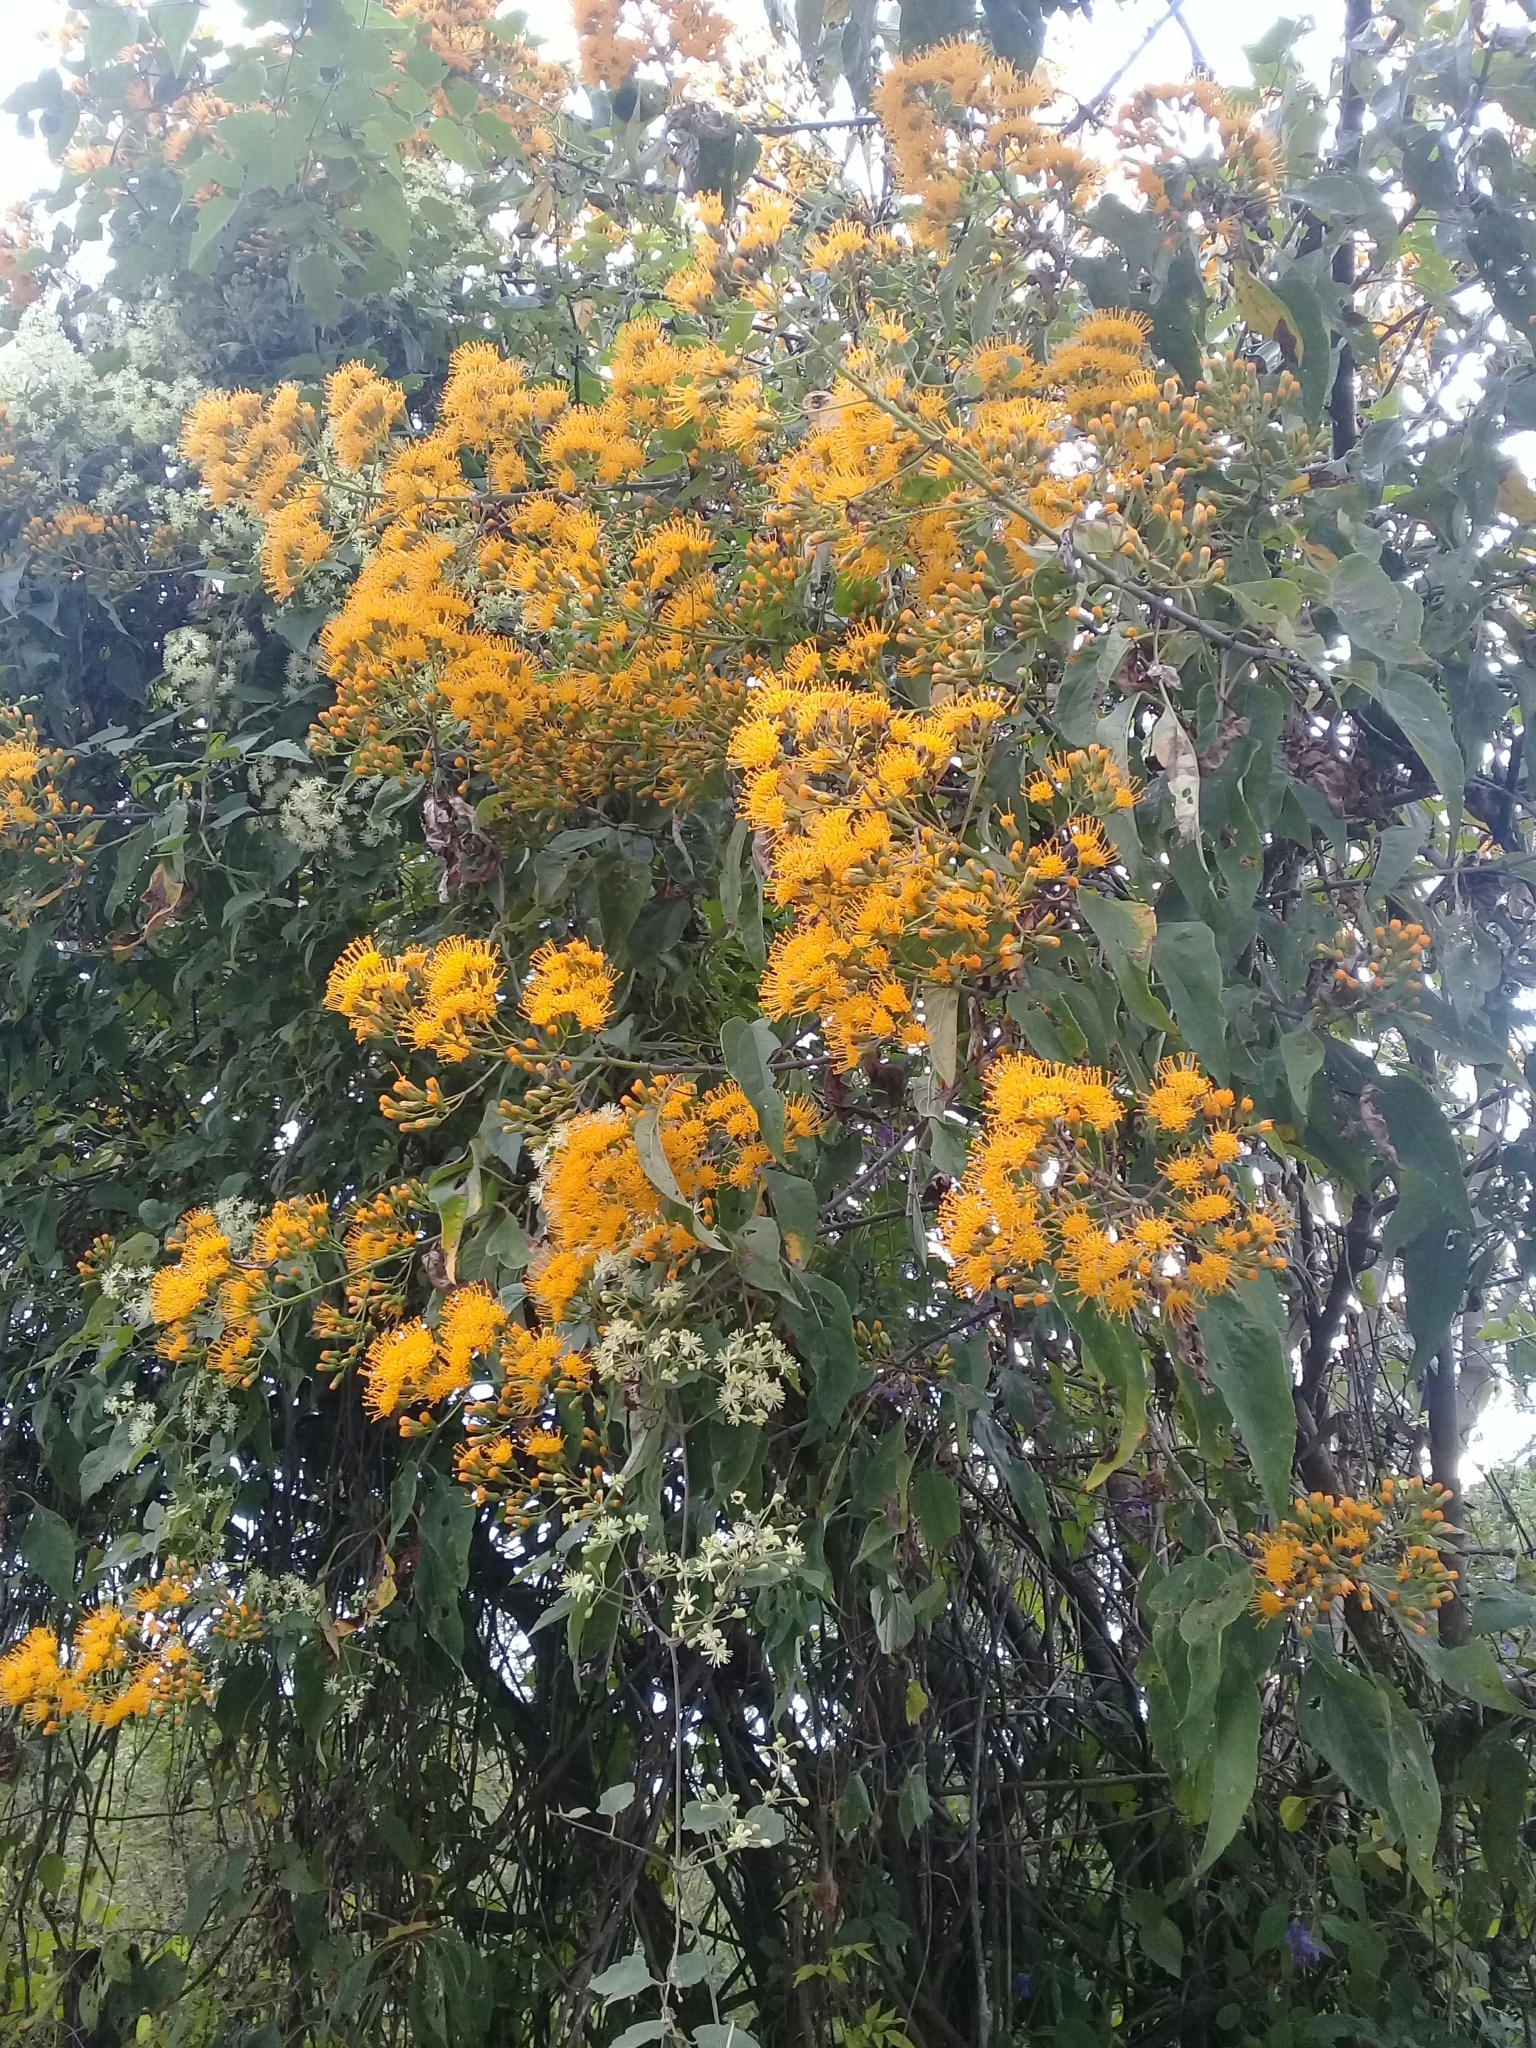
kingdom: Plantae
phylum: Tracheophyta
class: Magnoliopsida
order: Asterales
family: Asteraceae
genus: Sinclairia
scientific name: Sinclairia glabra
